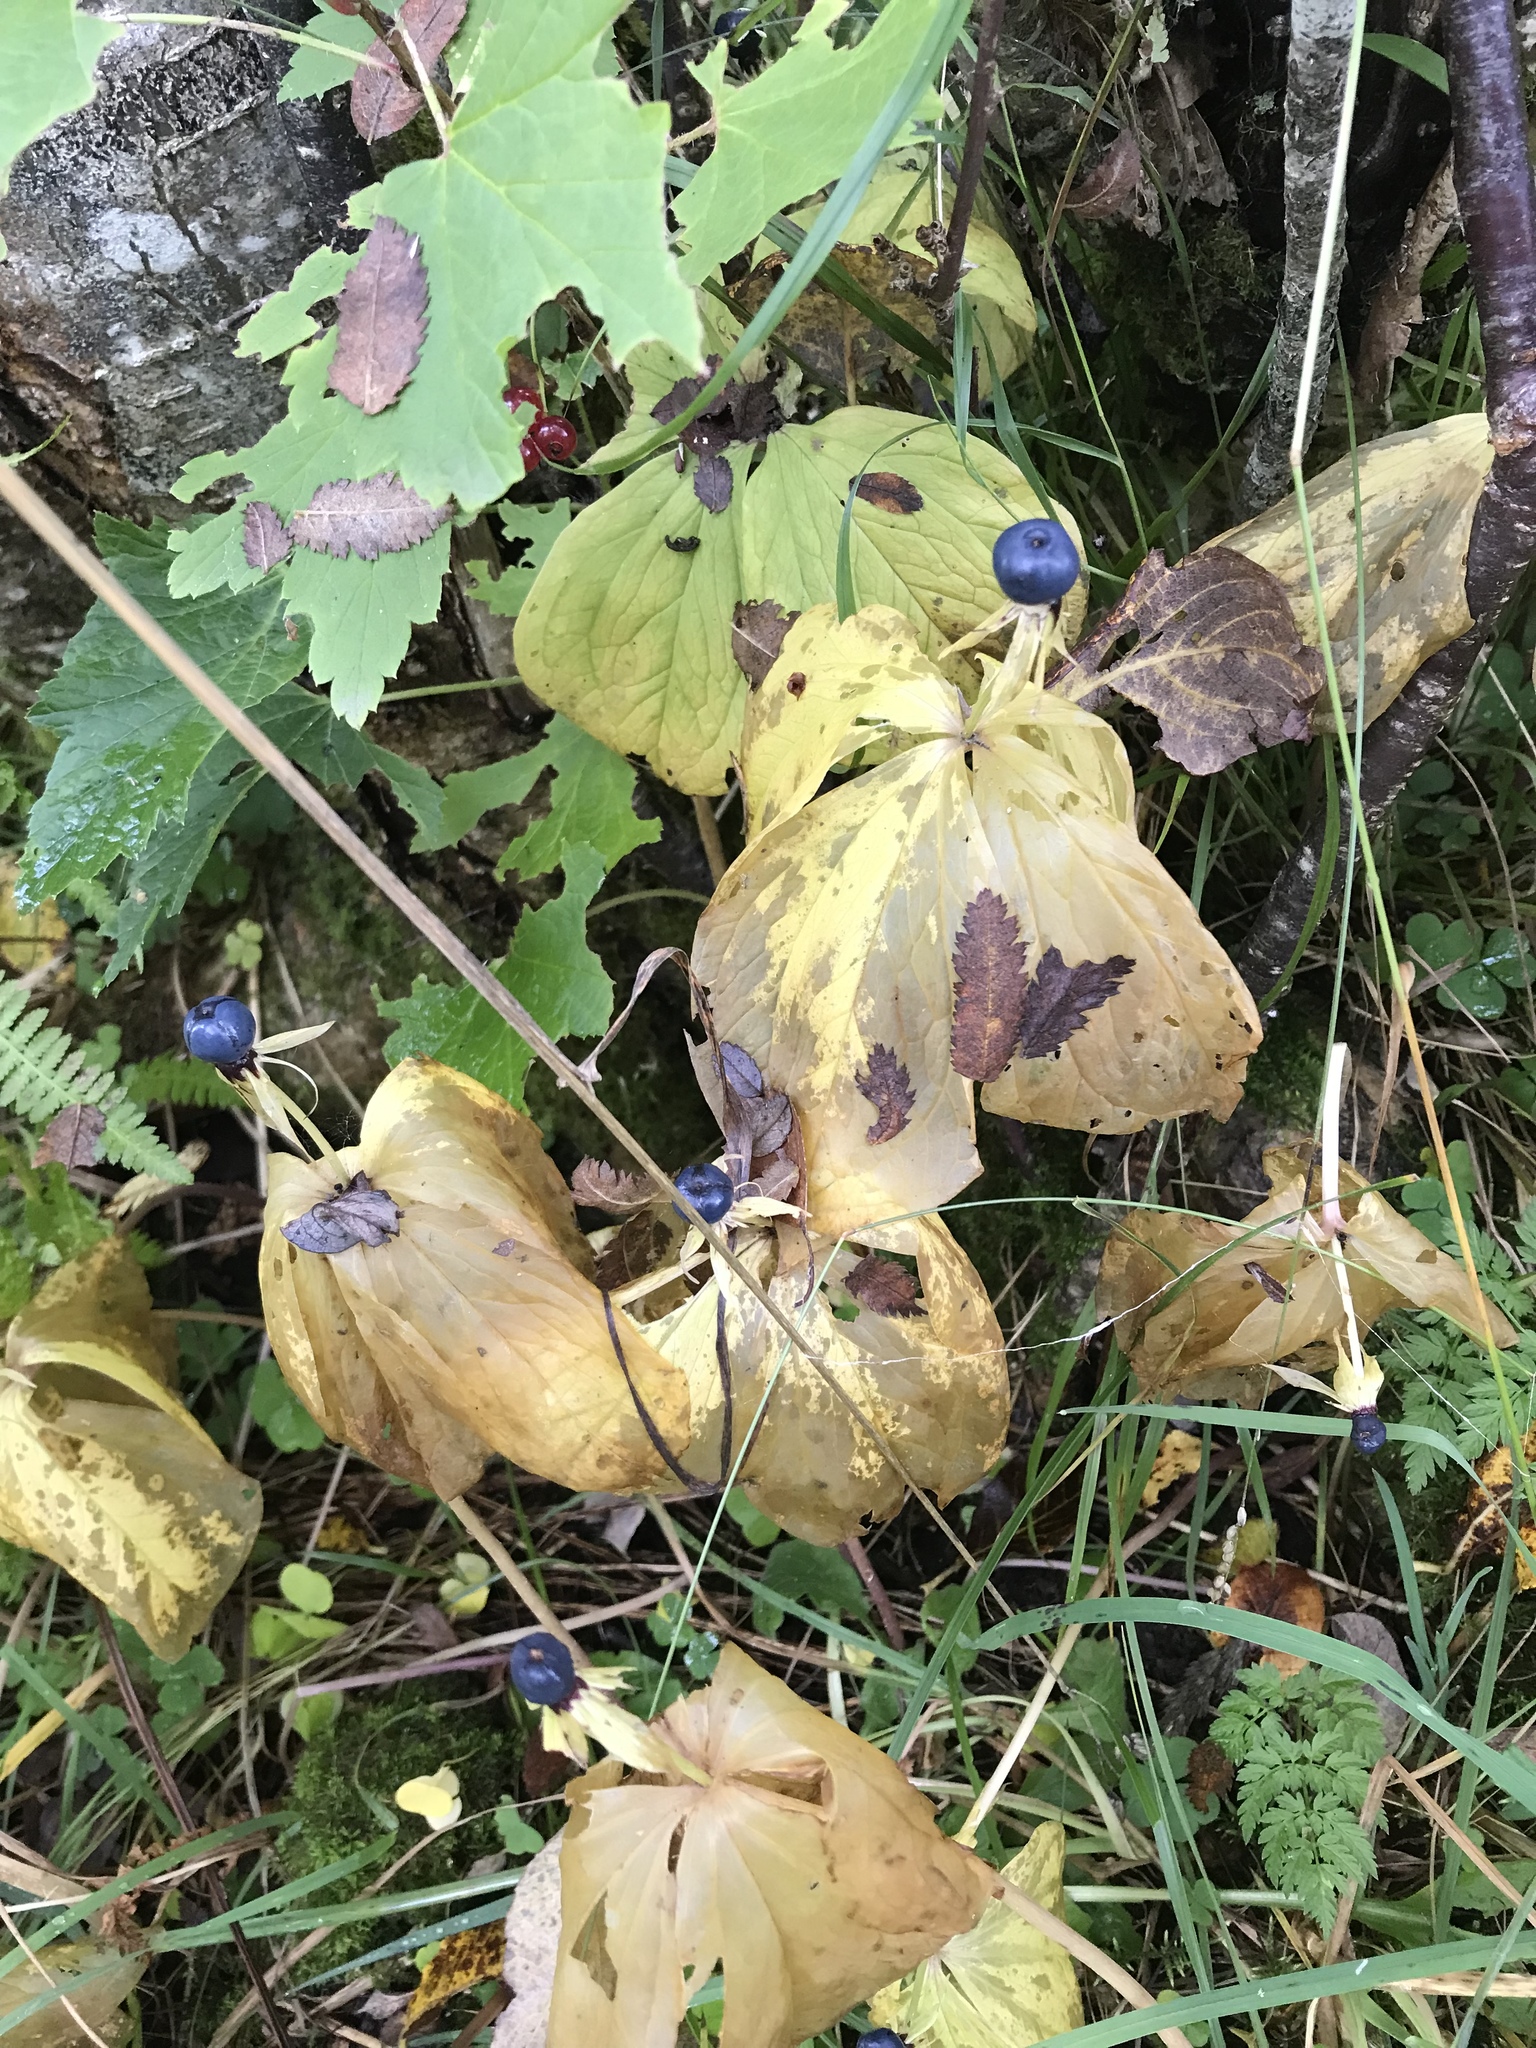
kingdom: Plantae
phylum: Tracheophyta
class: Liliopsida
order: Liliales
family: Melanthiaceae
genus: Paris
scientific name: Paris quadrifolia
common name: Herb-paris
